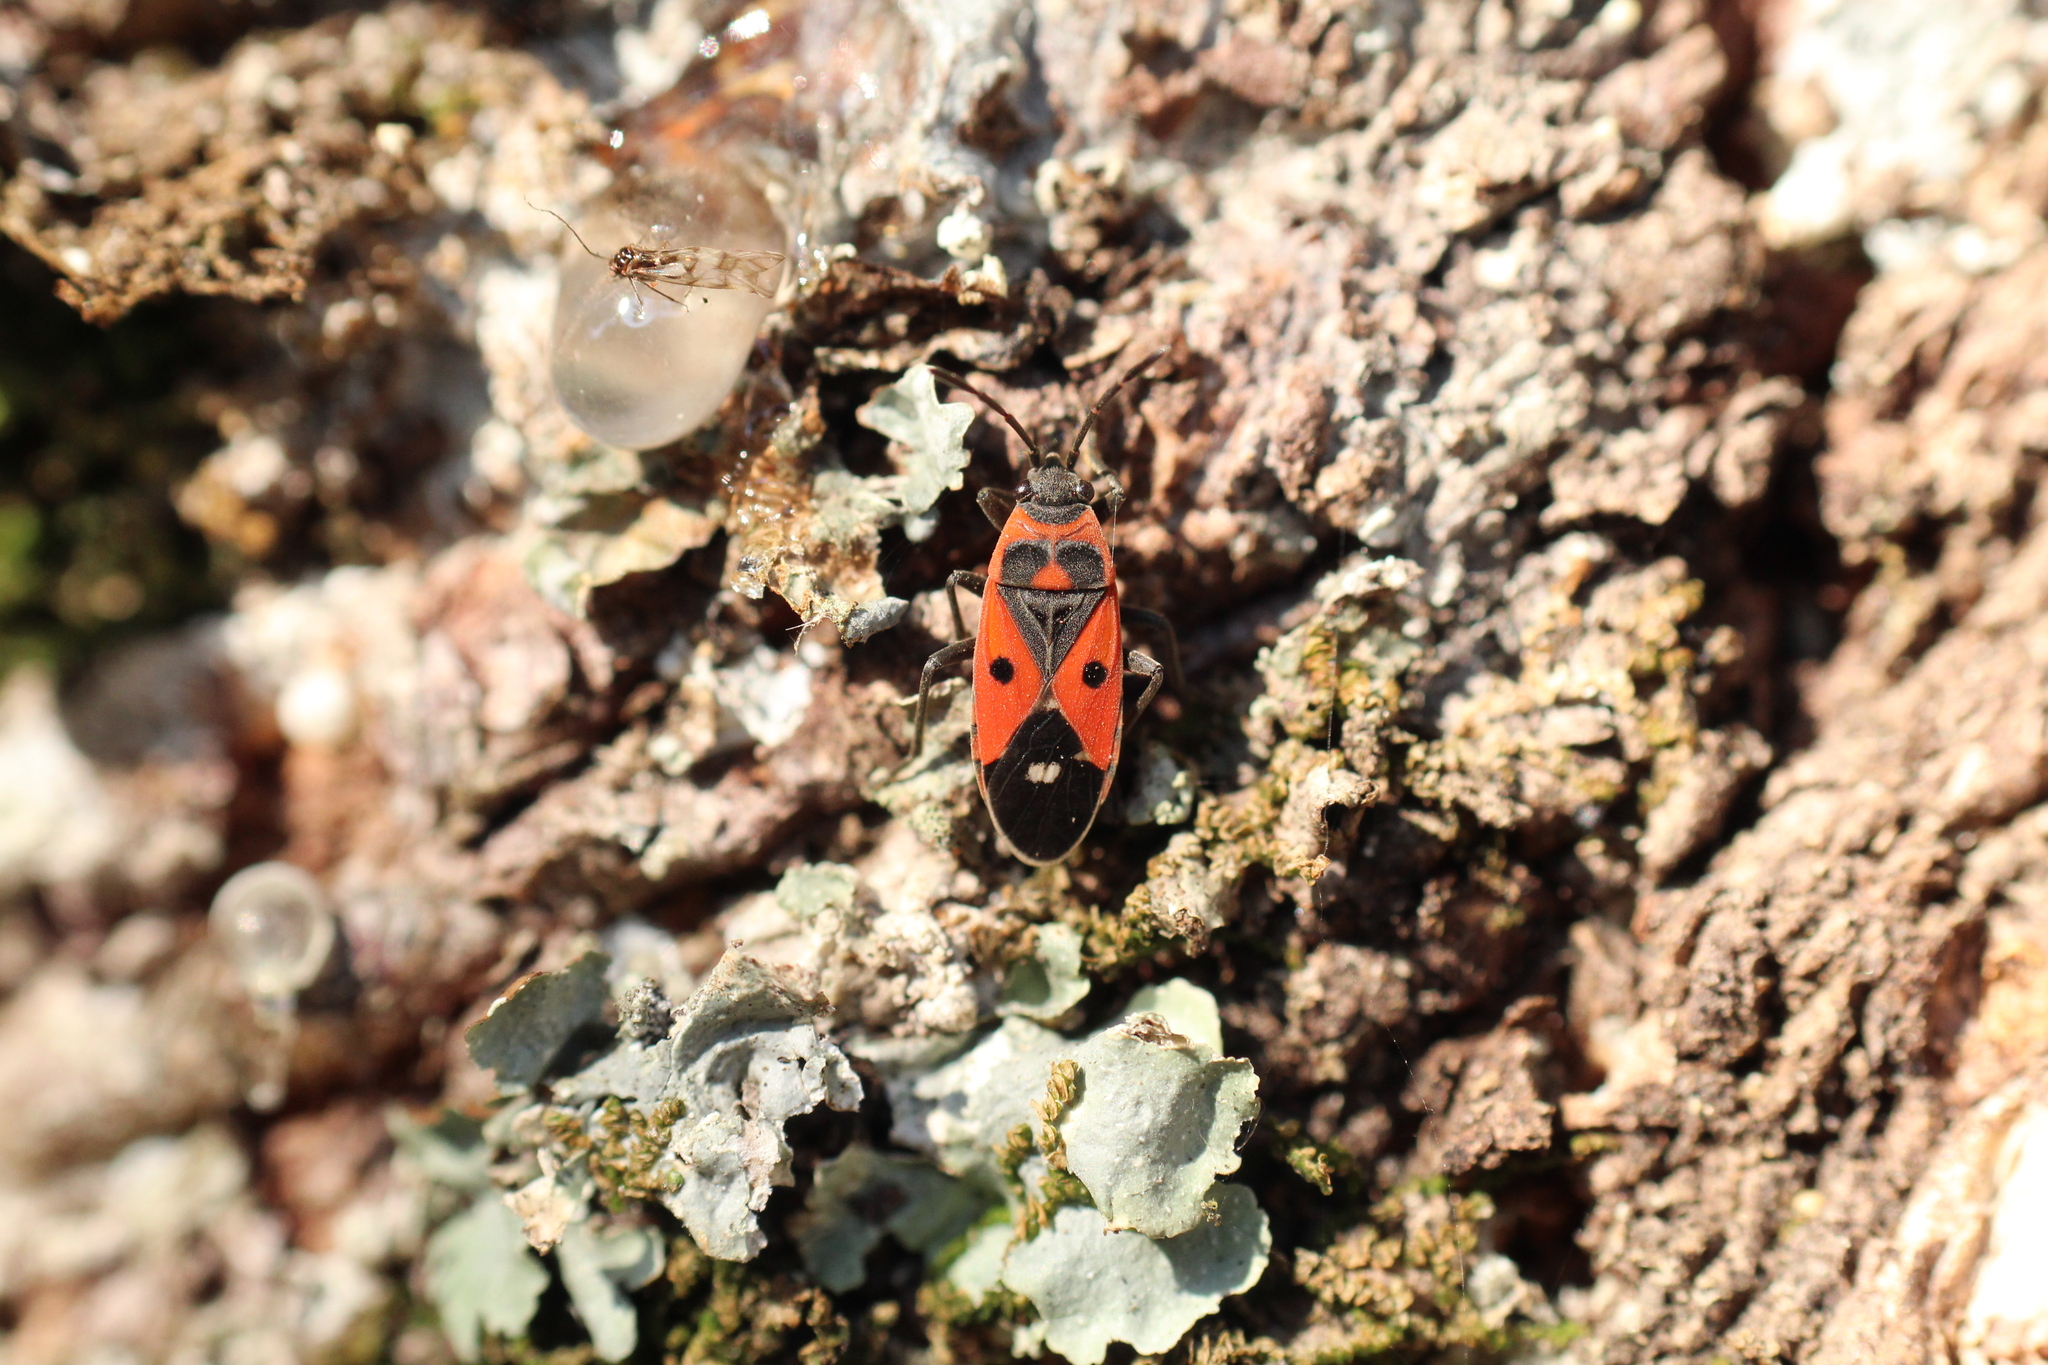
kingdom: Animalia
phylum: Arthropoda
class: Insecta
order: Hemiptera
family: Lygaeidae
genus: Melanocoryphus
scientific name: Melanocoryphus albomaculatus
